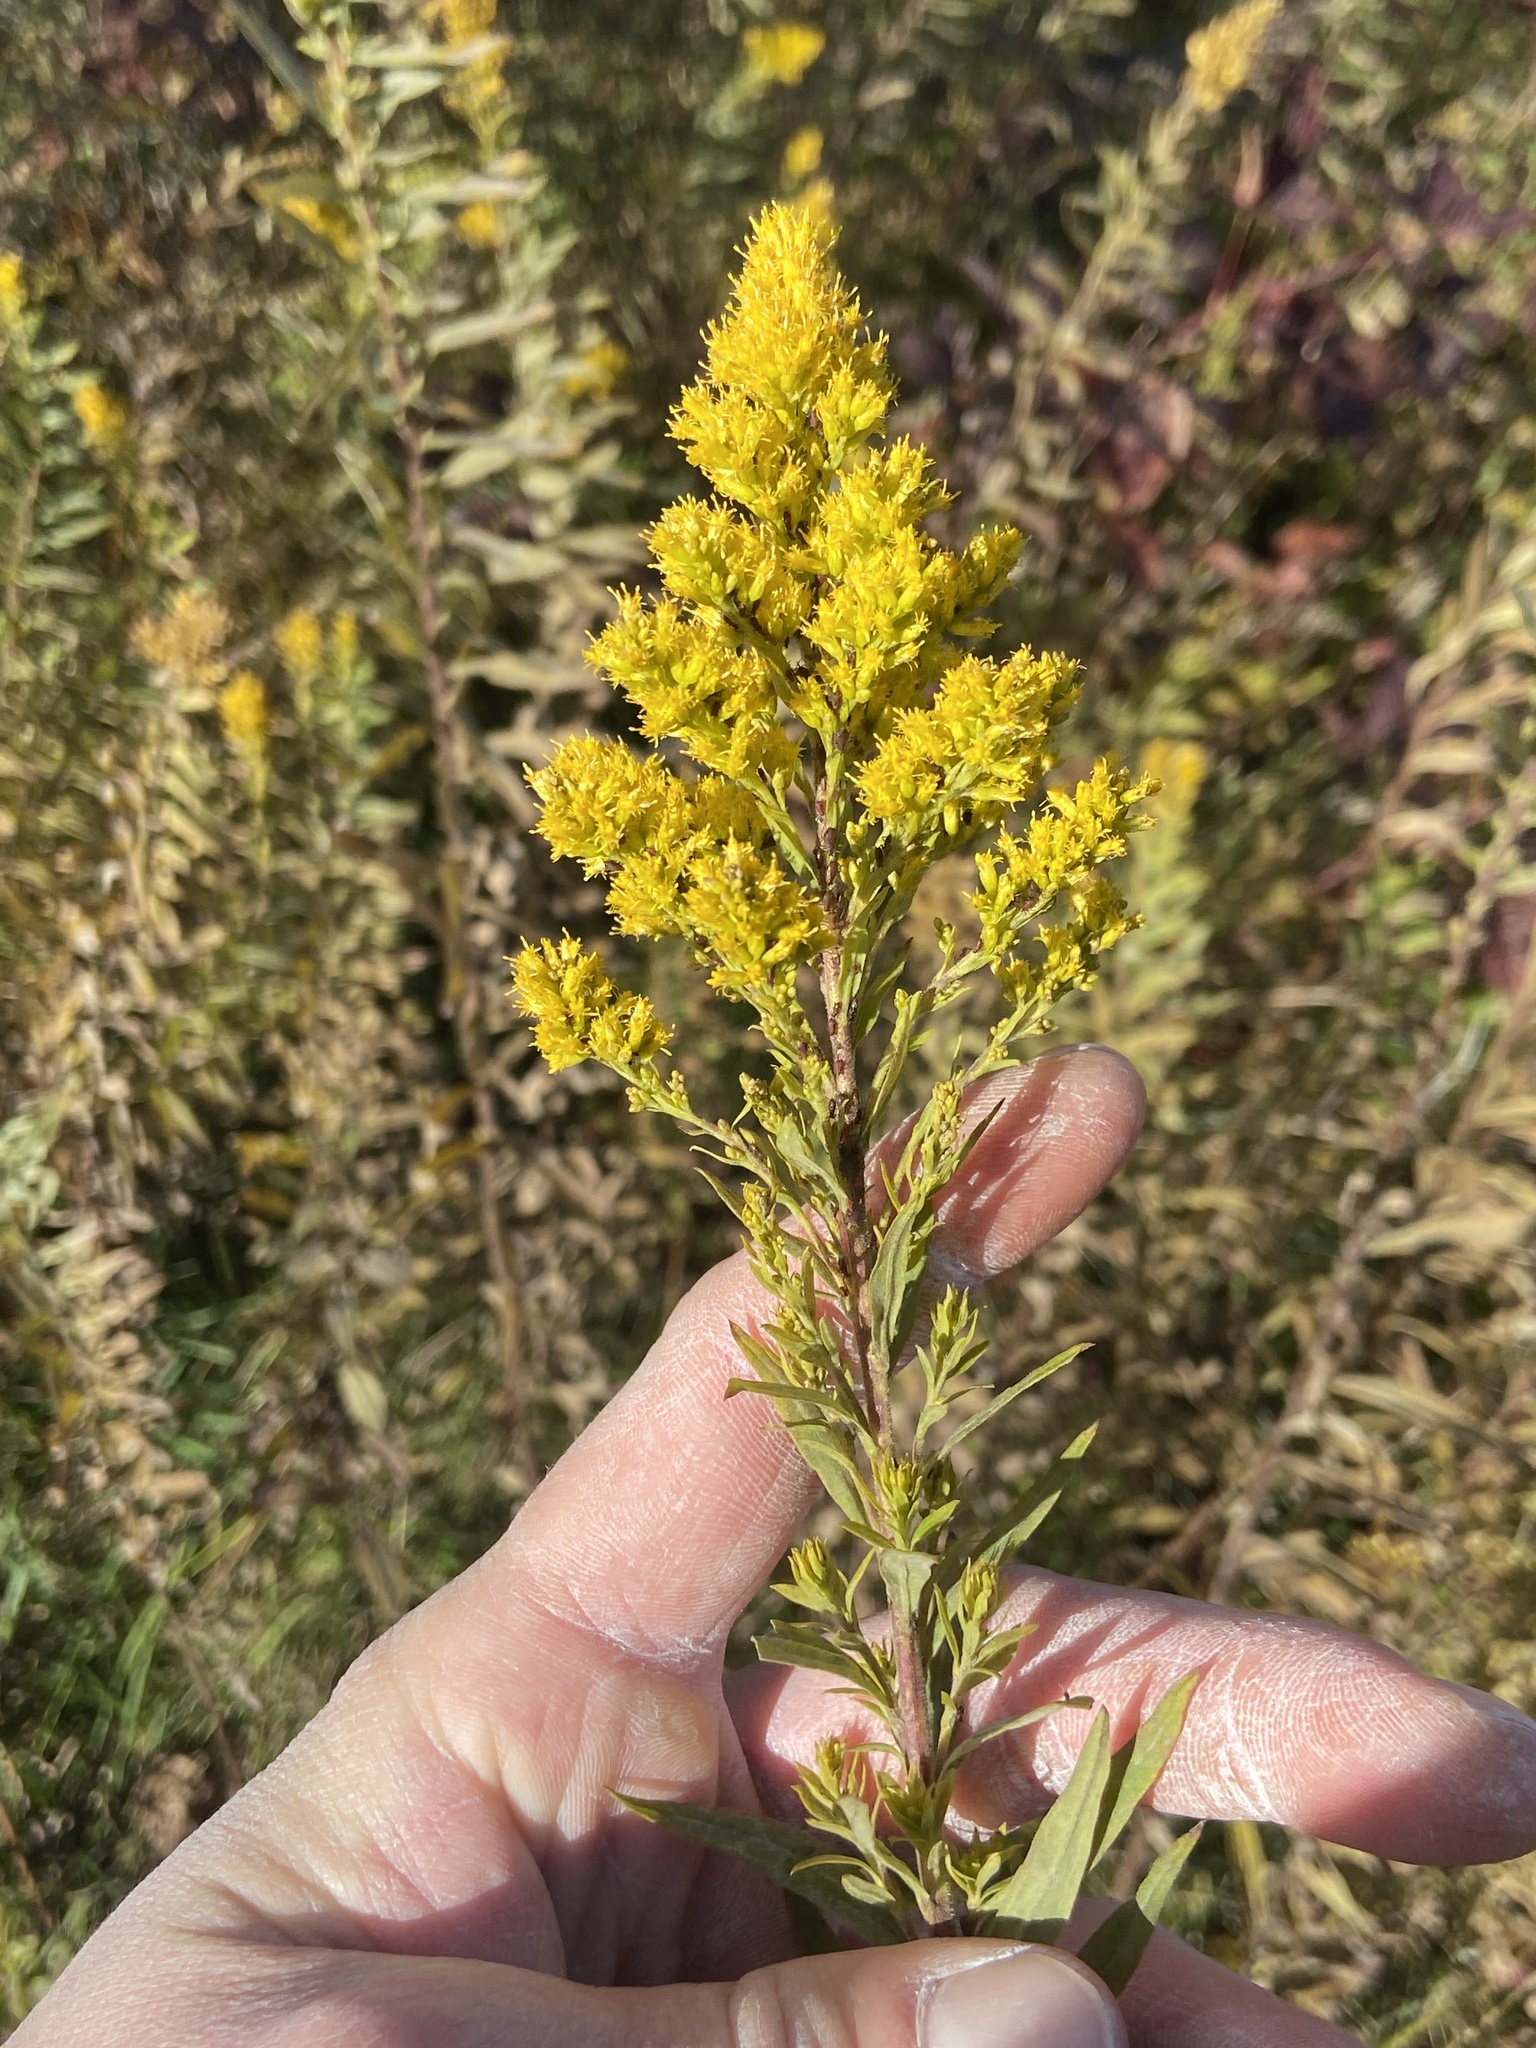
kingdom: Plantae
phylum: Tracheophyta
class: Magnoliopsida
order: Asterales
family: Asteraceae
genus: Solidago
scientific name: Solidago altissima
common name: Late goldenrod
